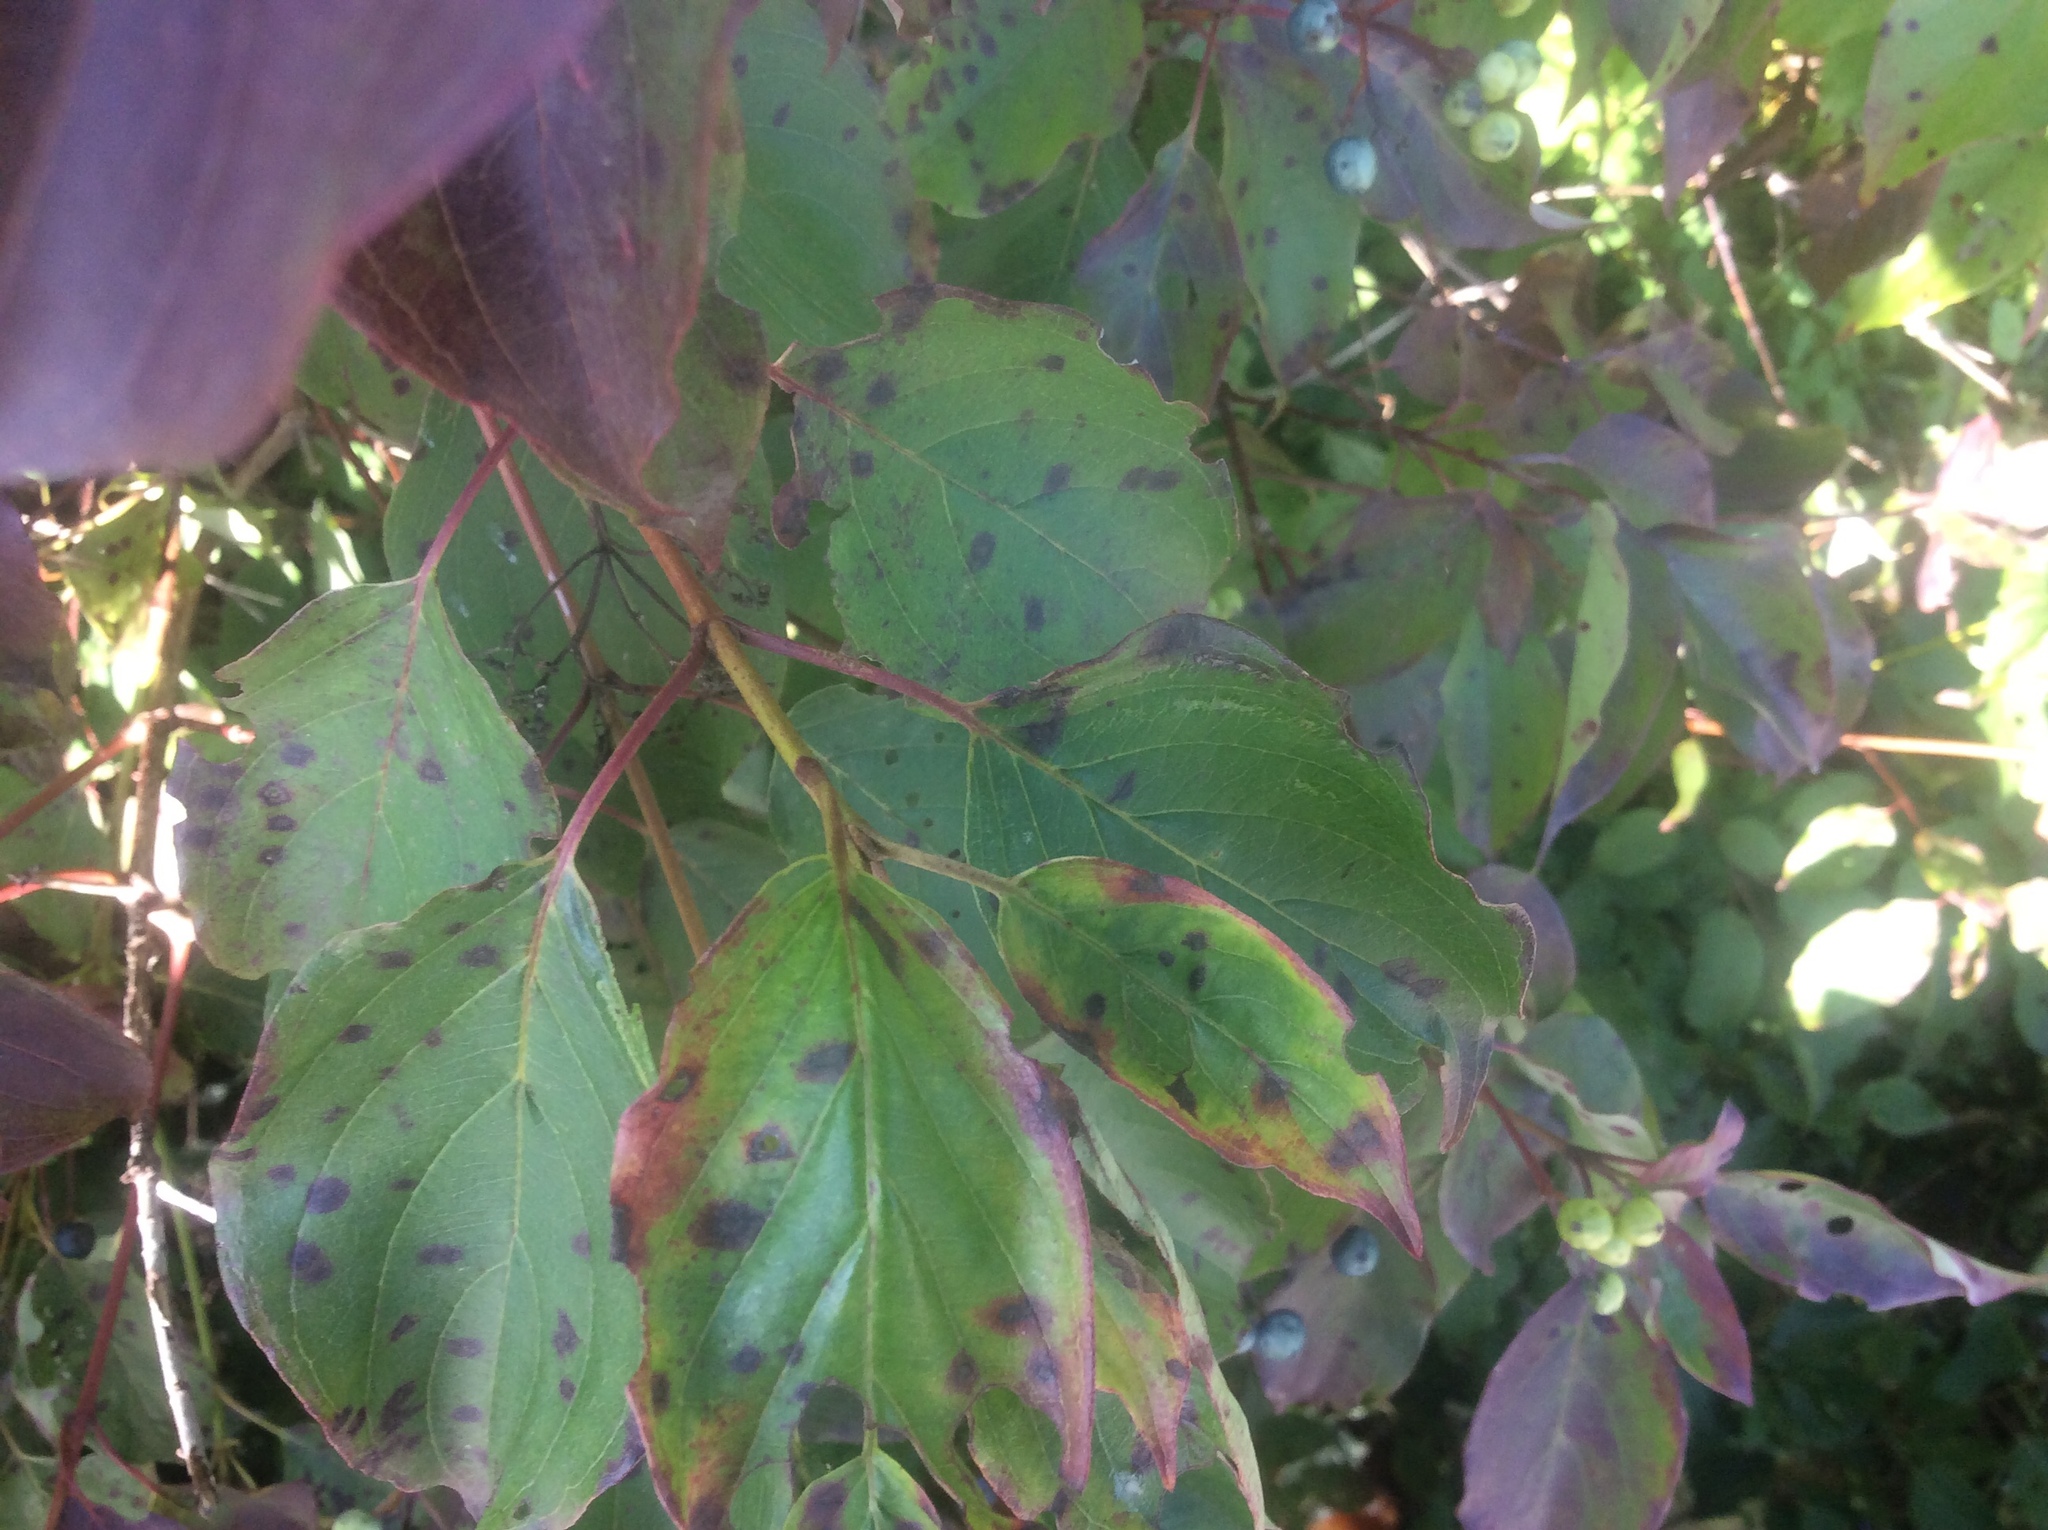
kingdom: Plantae
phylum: Tracheophyta
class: Magnoliopsida
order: Cornales
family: Cornaceae
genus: Cornus
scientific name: Cornus amomum
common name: Silky dogwood
